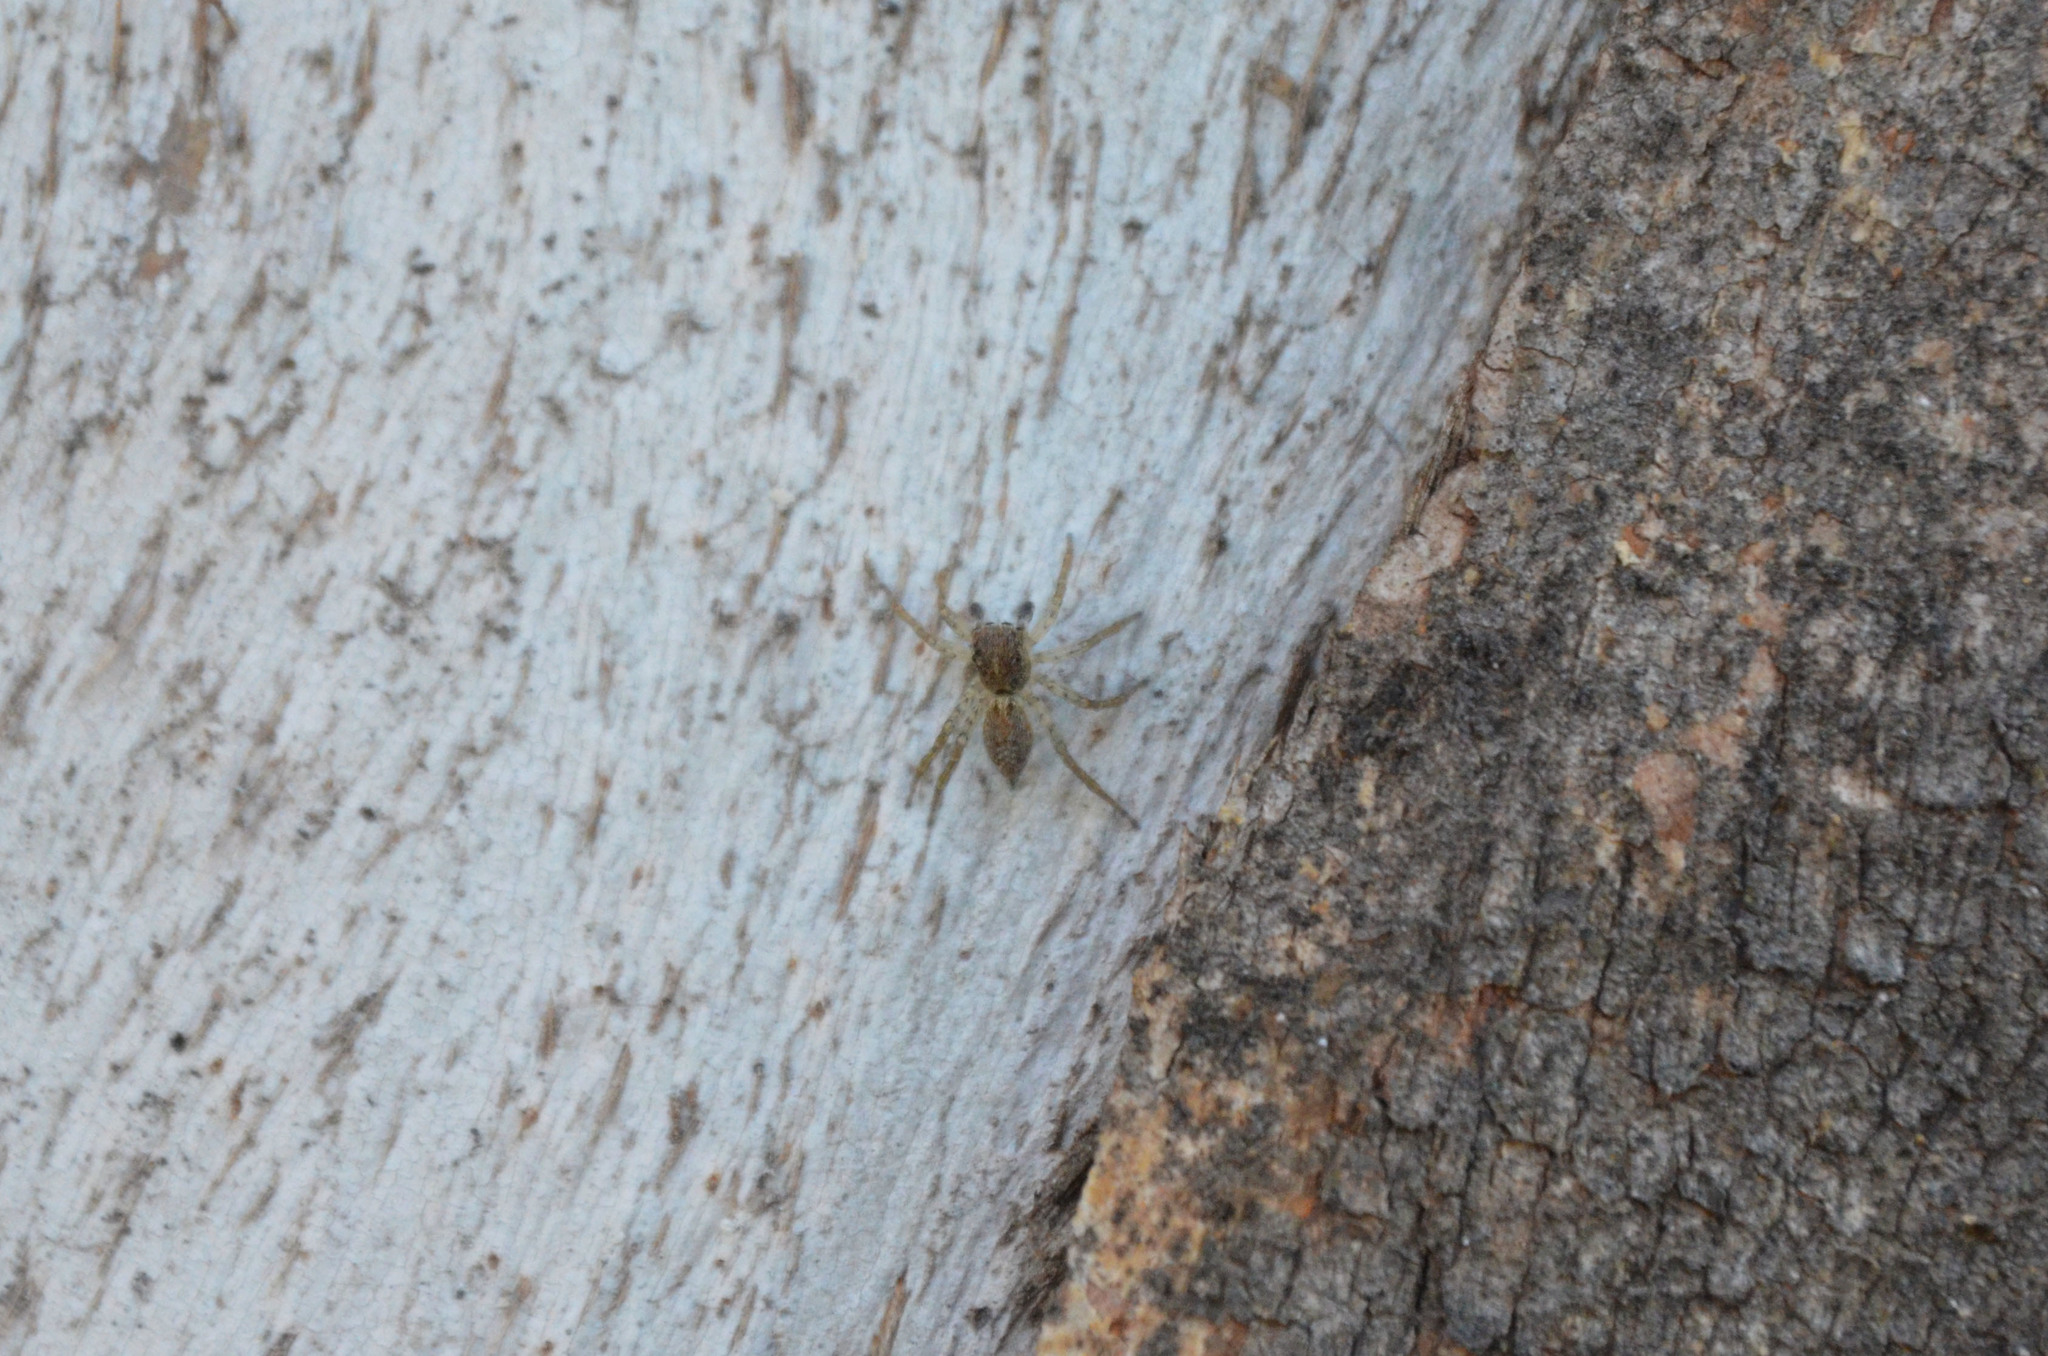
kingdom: Animalia
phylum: Arthropoda
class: Arachnida
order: Araneae
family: Salticidae
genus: Saitis
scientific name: Saitis variegatus
